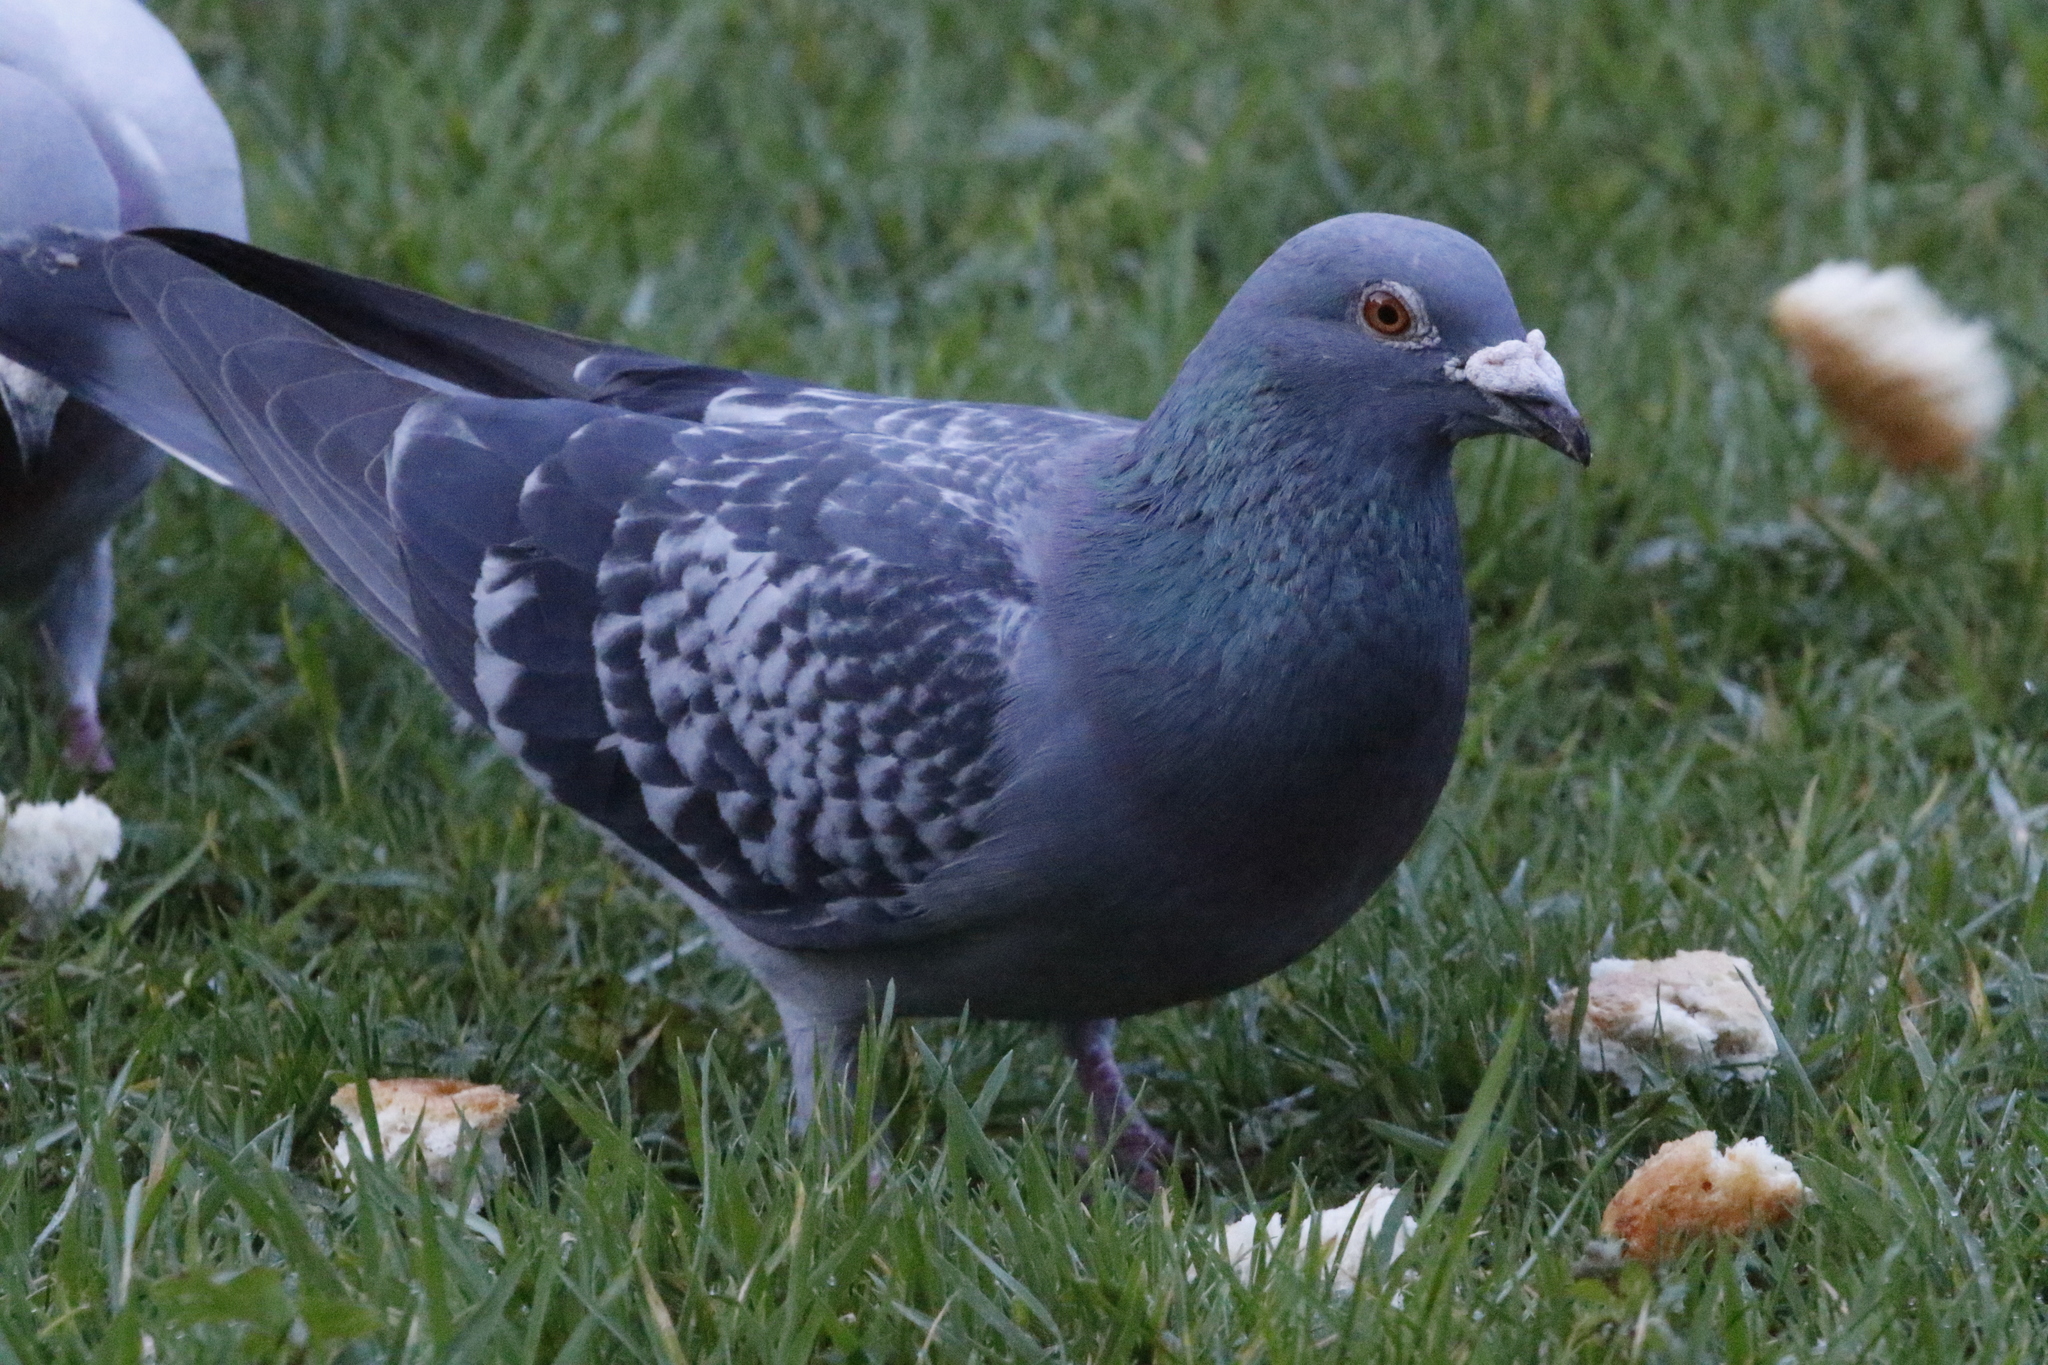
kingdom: Animalia
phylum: Chordata
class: Aves
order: Columbiformes
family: Columbidae
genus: Columba
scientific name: Columba livia
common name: Rock pigeon
